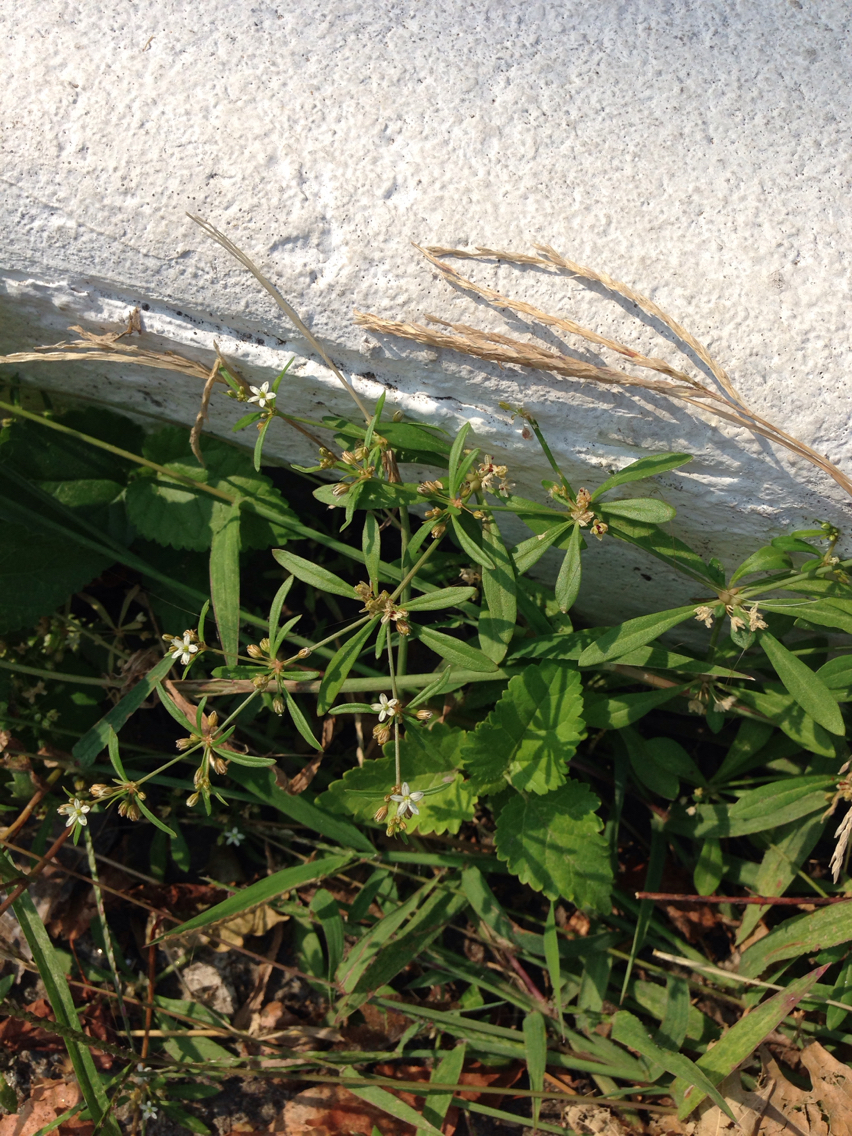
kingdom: Plantae
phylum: Tracheophyta
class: Magnoliopsida
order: Caryophyllales
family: Molluginaceae
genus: Mollugo
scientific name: Mollugo verticillata
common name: Green carpetweed
